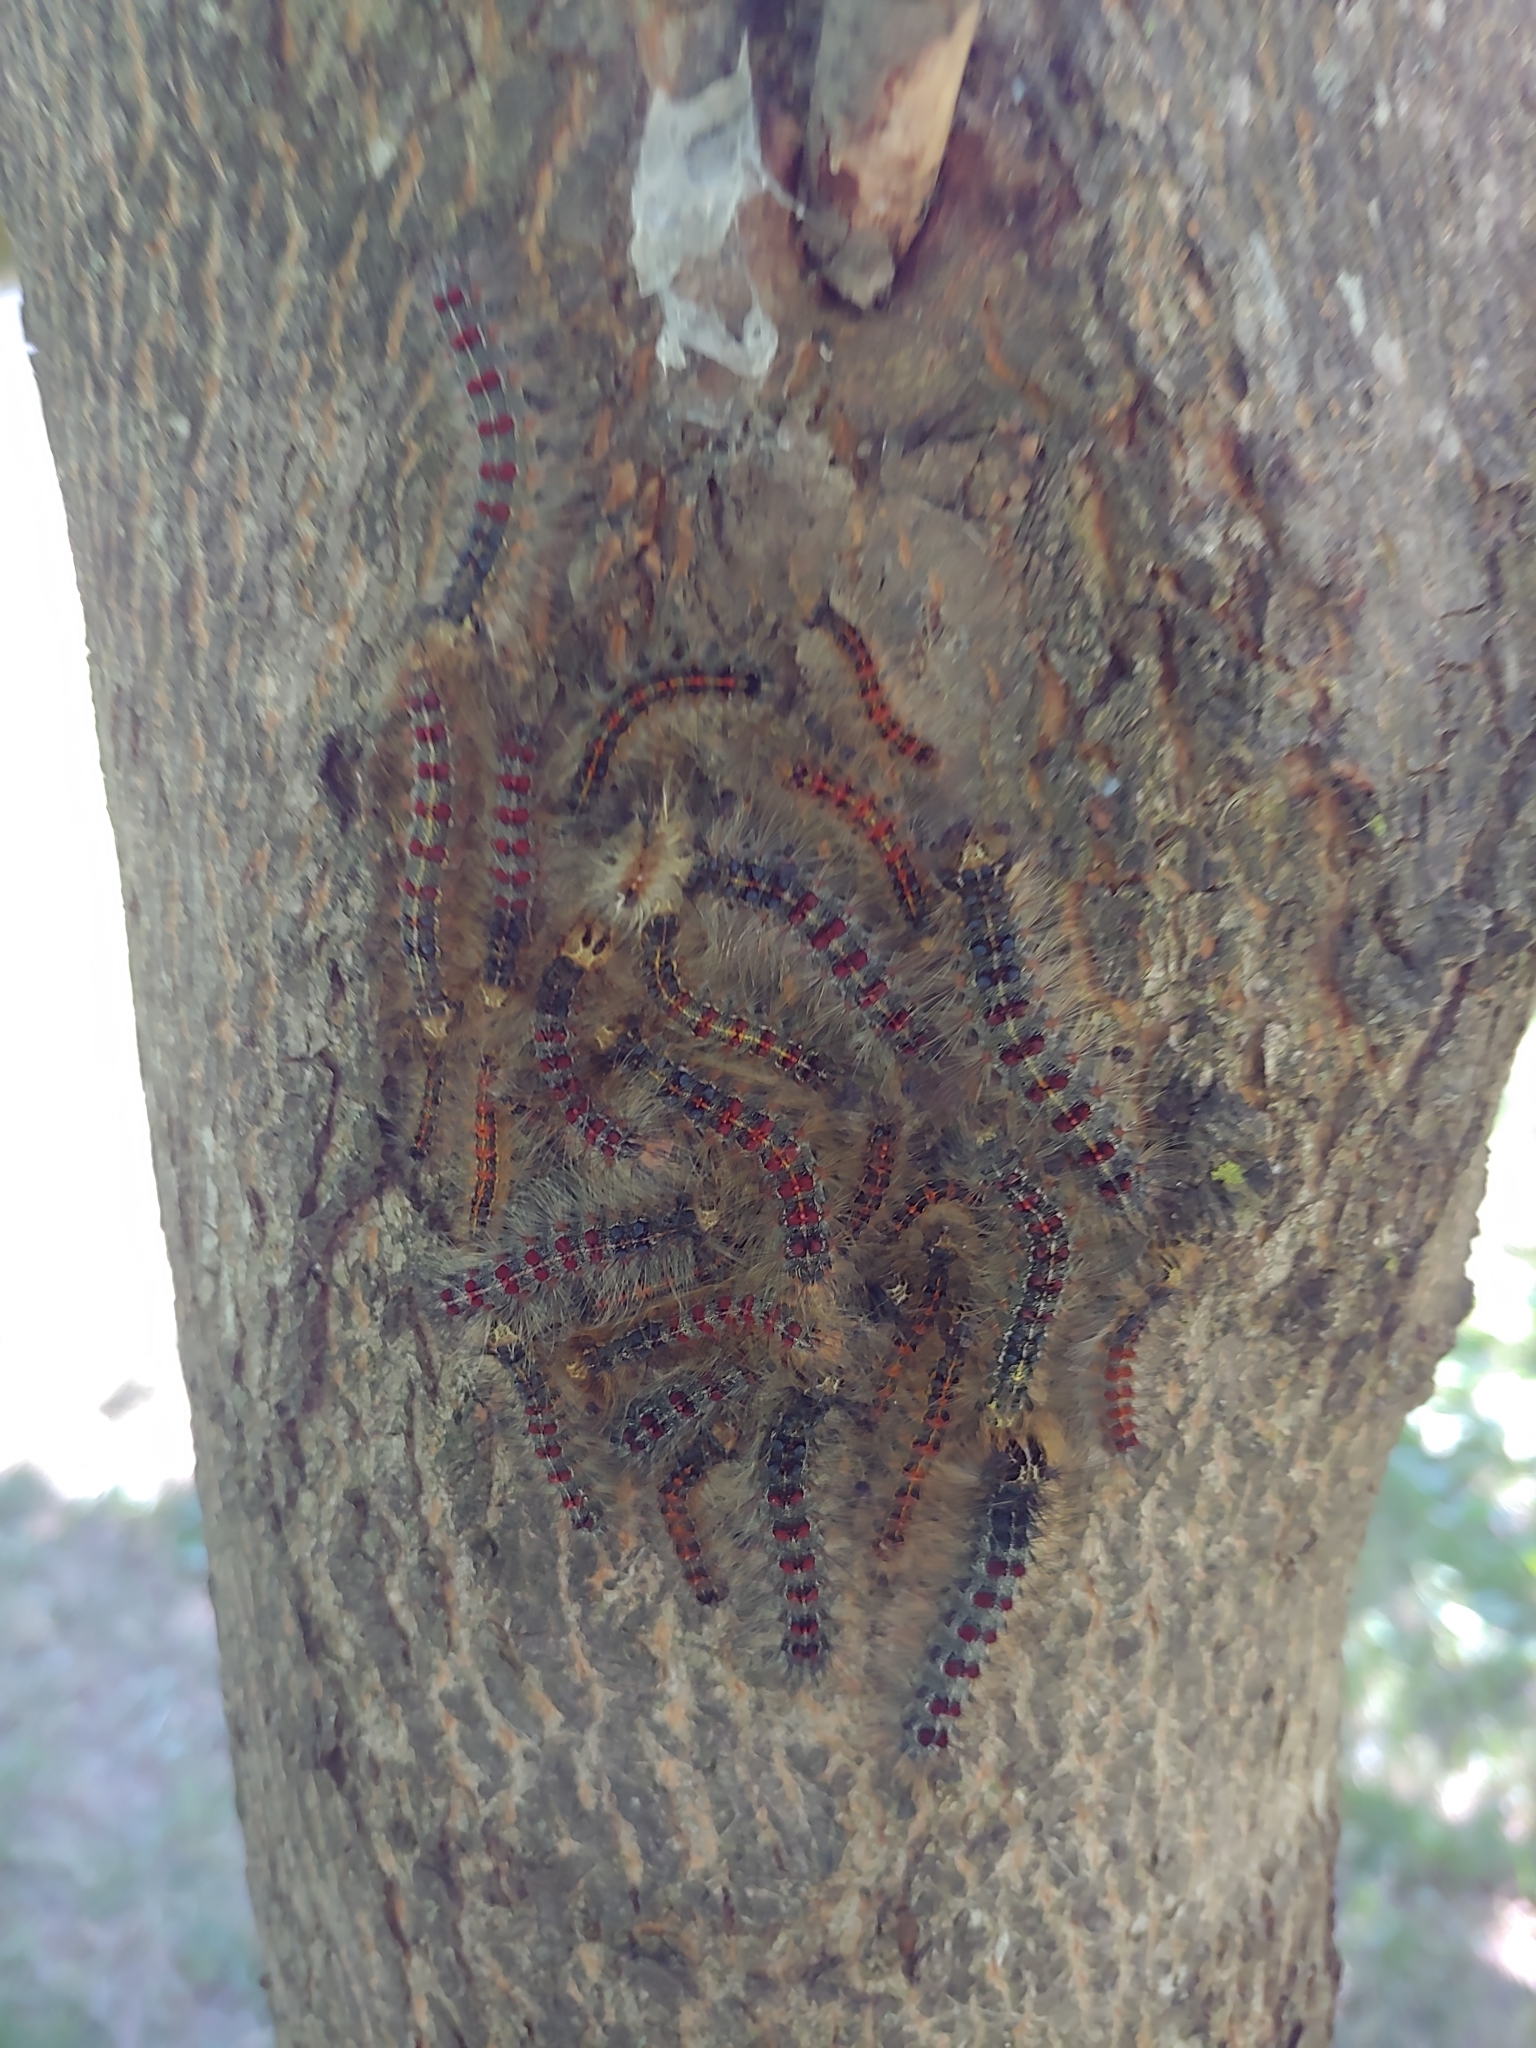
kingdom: Animalia
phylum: Arthropoda
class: Insecta
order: Lepidoptera
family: Erebidae
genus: Lymantria
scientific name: Lymantria dispar
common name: Gypsy moth
